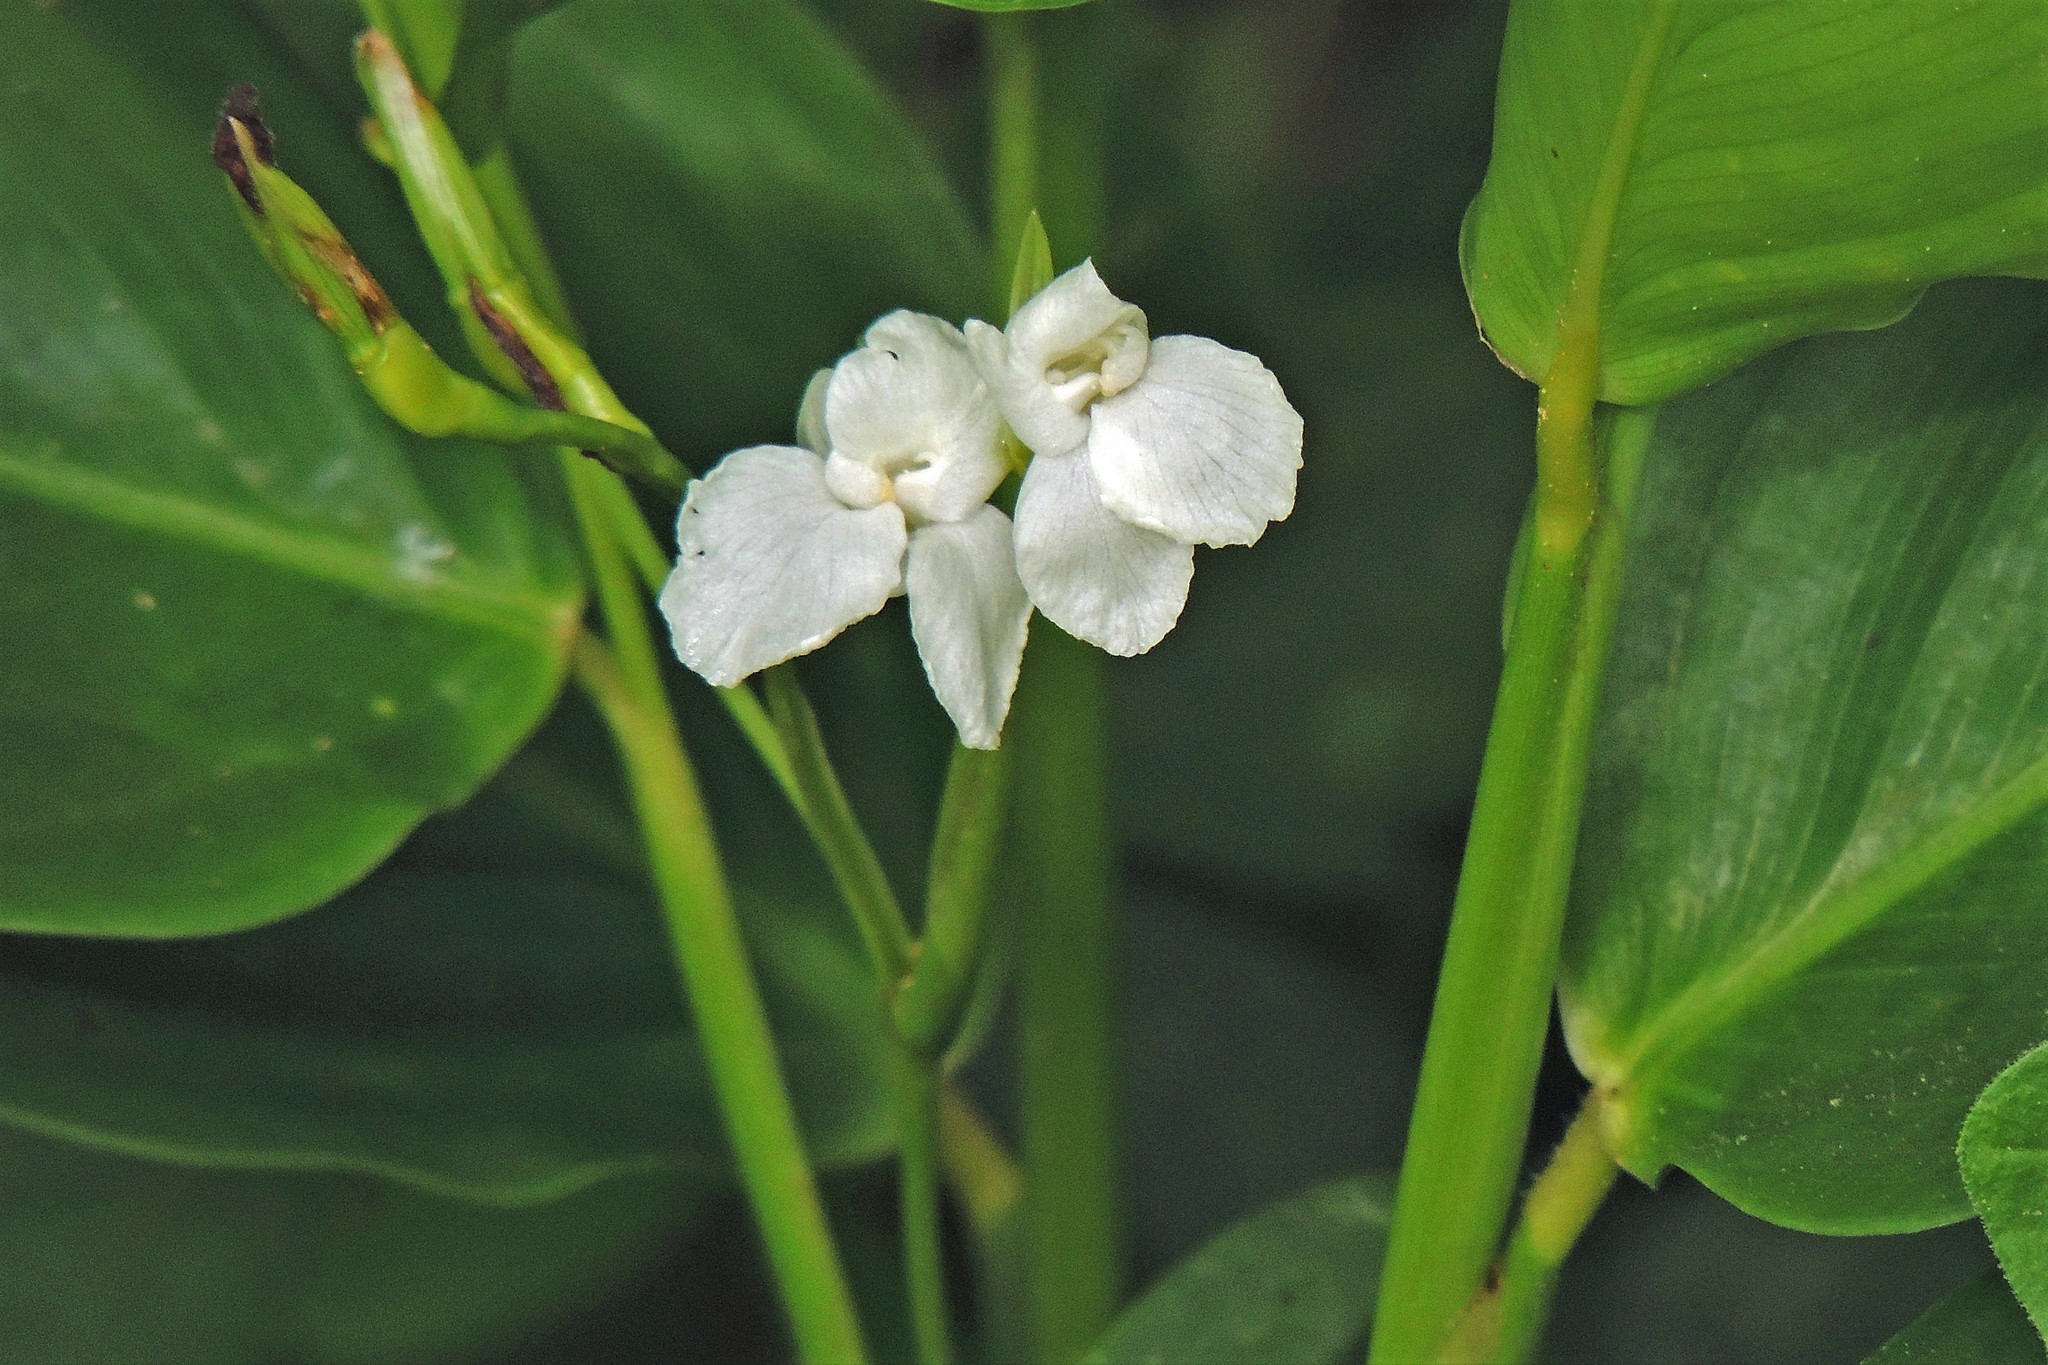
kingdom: Plantae
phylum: Tracheophyta
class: Liliopsida
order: Zingiberales
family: Marantaceae
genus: Maranta
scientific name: Maranta sobolifera
